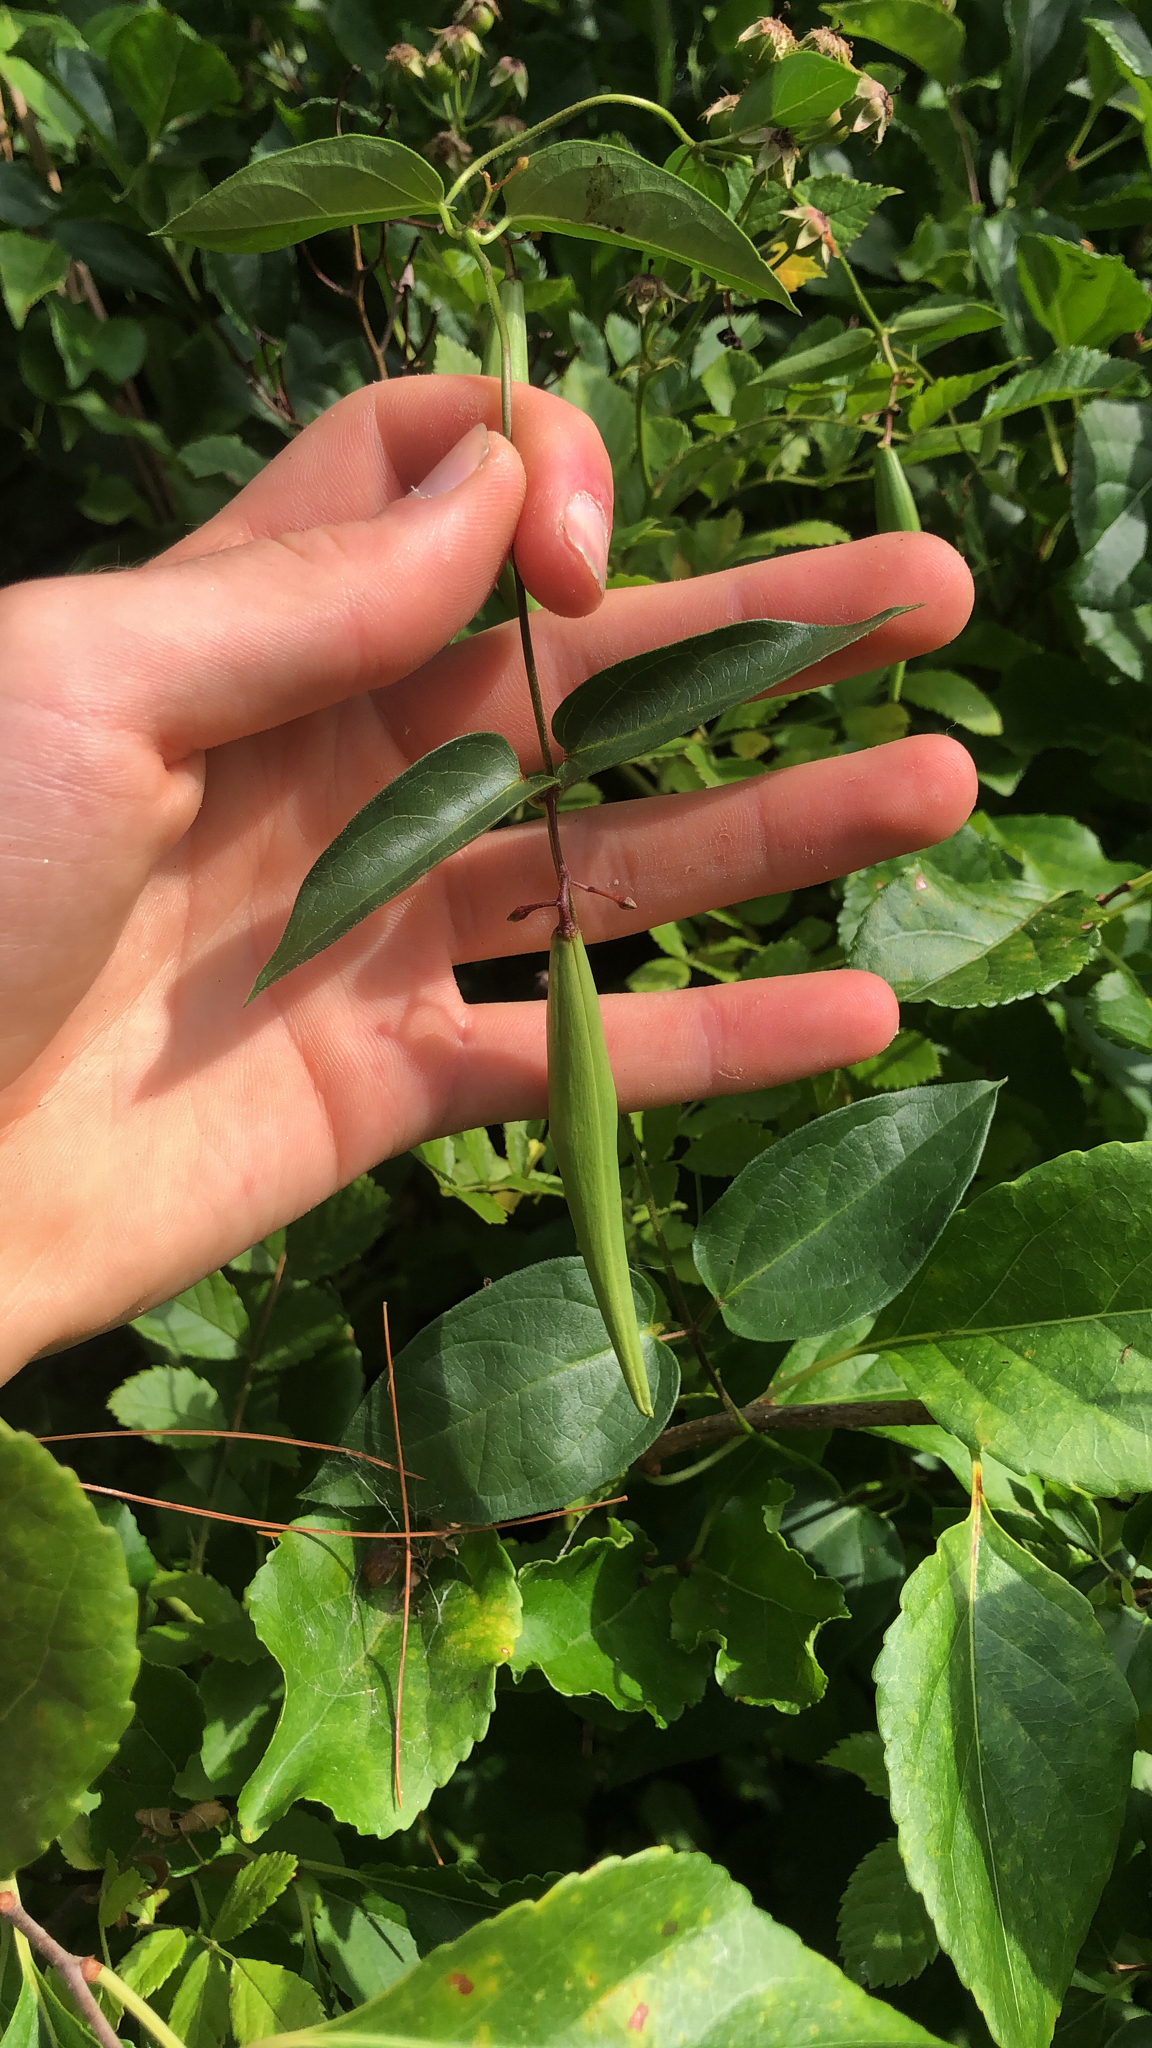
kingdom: Plantae
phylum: Tracheophyta
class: Magnoliopsida
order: Gentianales
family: Apocynaceae
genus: Vincetoxicum
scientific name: Vincetoxicum nigrum
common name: Black swallow-wort
